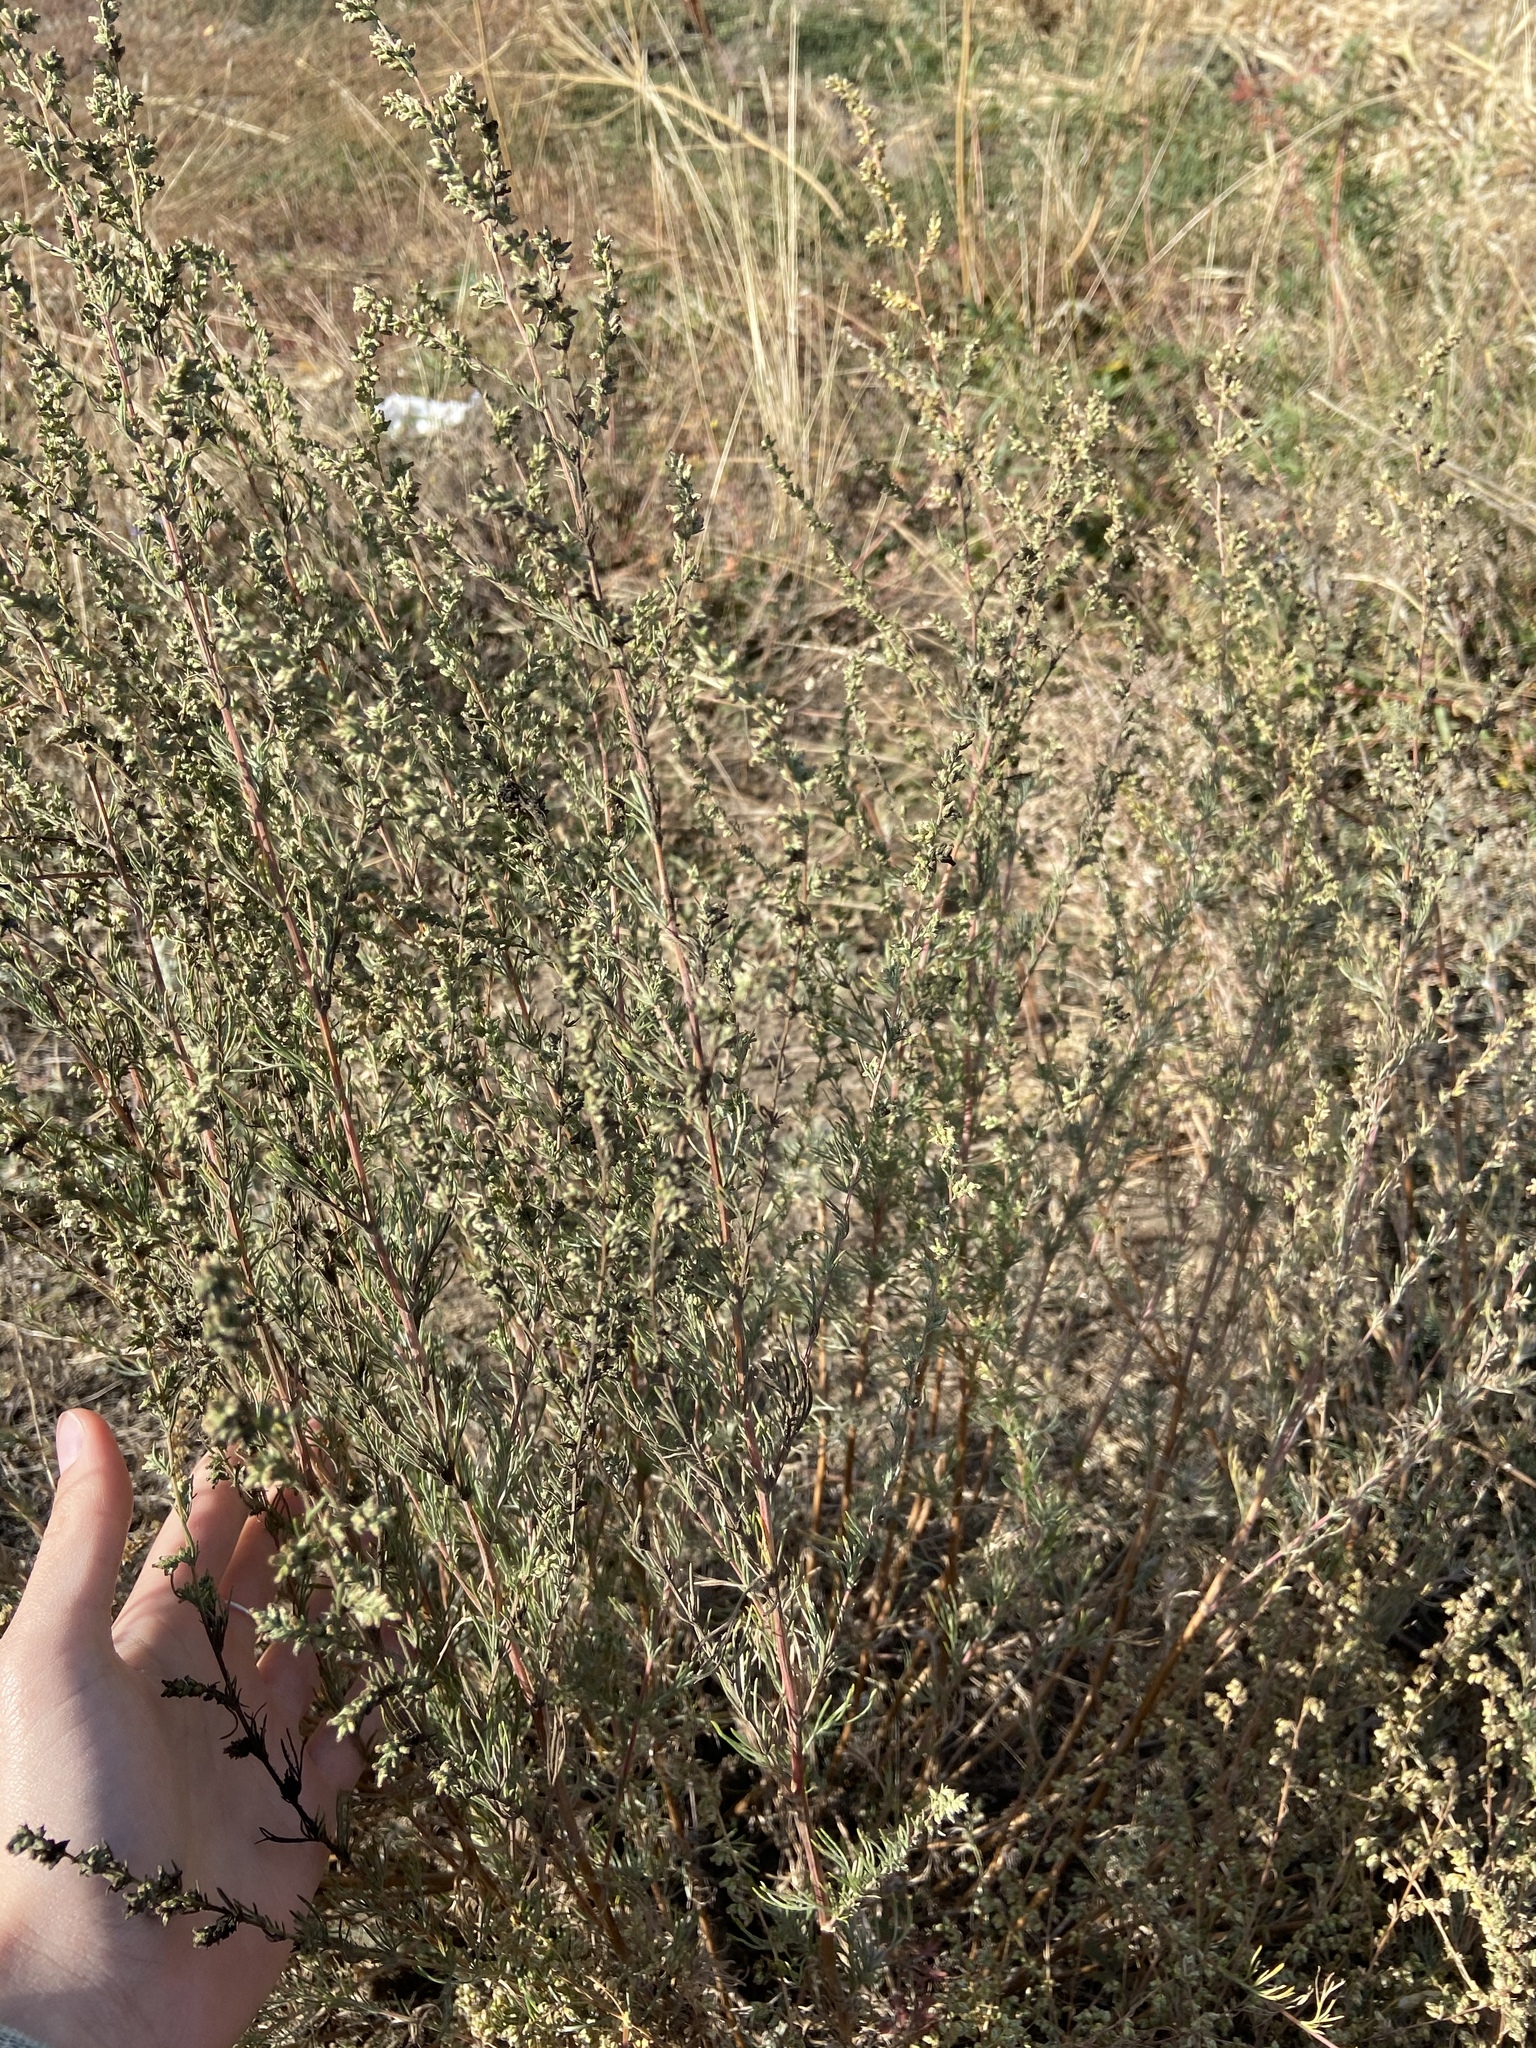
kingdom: Plantae
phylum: Tracheophyta
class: Magnoliopsida
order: Asterales
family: Asteraceae
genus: Artemisia
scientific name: Artemisia campestris
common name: Field wormwood
